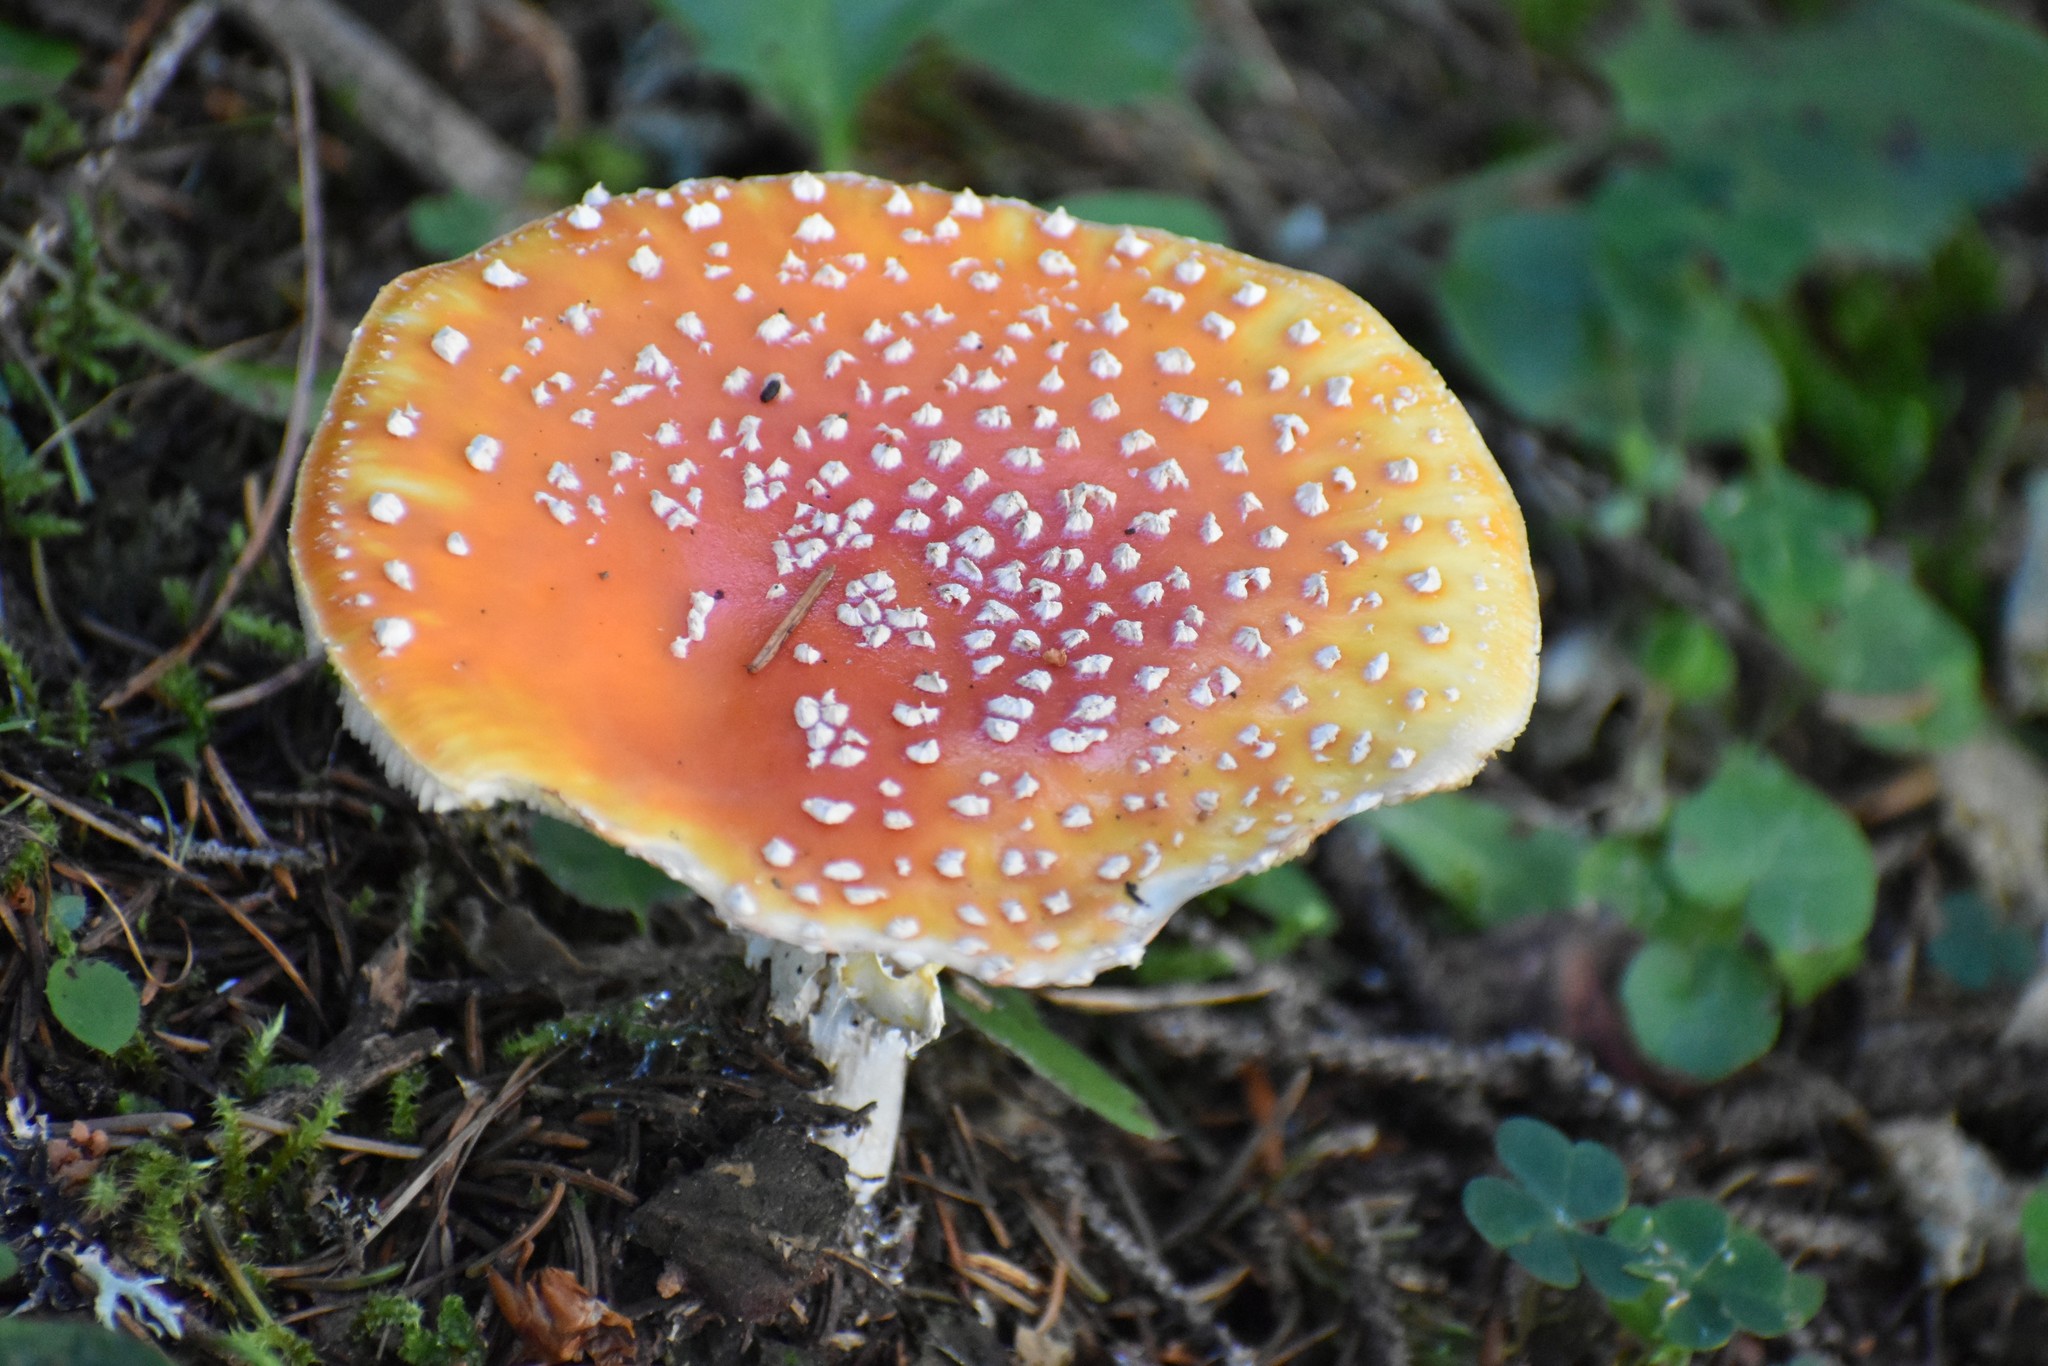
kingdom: Fungi
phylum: Basidiomycota
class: Agaricomycetes
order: Agaricales
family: Amanitaceae
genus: Amanita
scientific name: Amanita muscaria
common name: Fly agaric
